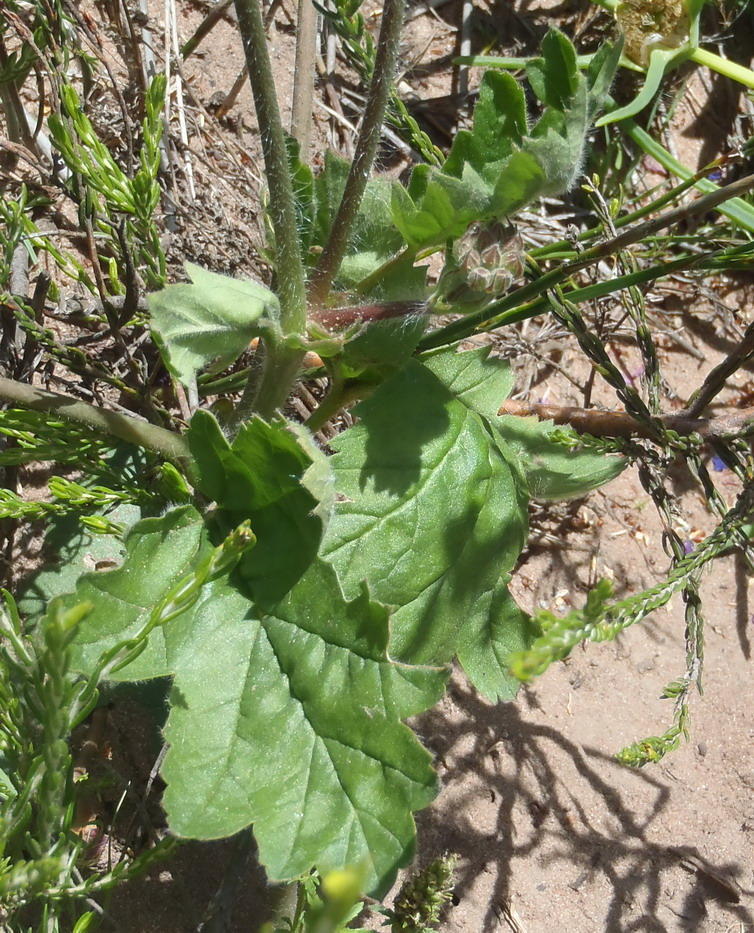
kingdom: Plantae
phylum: Tracheophyta
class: Magnoliopsida
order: Geraniales
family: Geraniaceae
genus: Pelargonium
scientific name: Pelargonium lobatum
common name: Vine-leaf pelargonium
